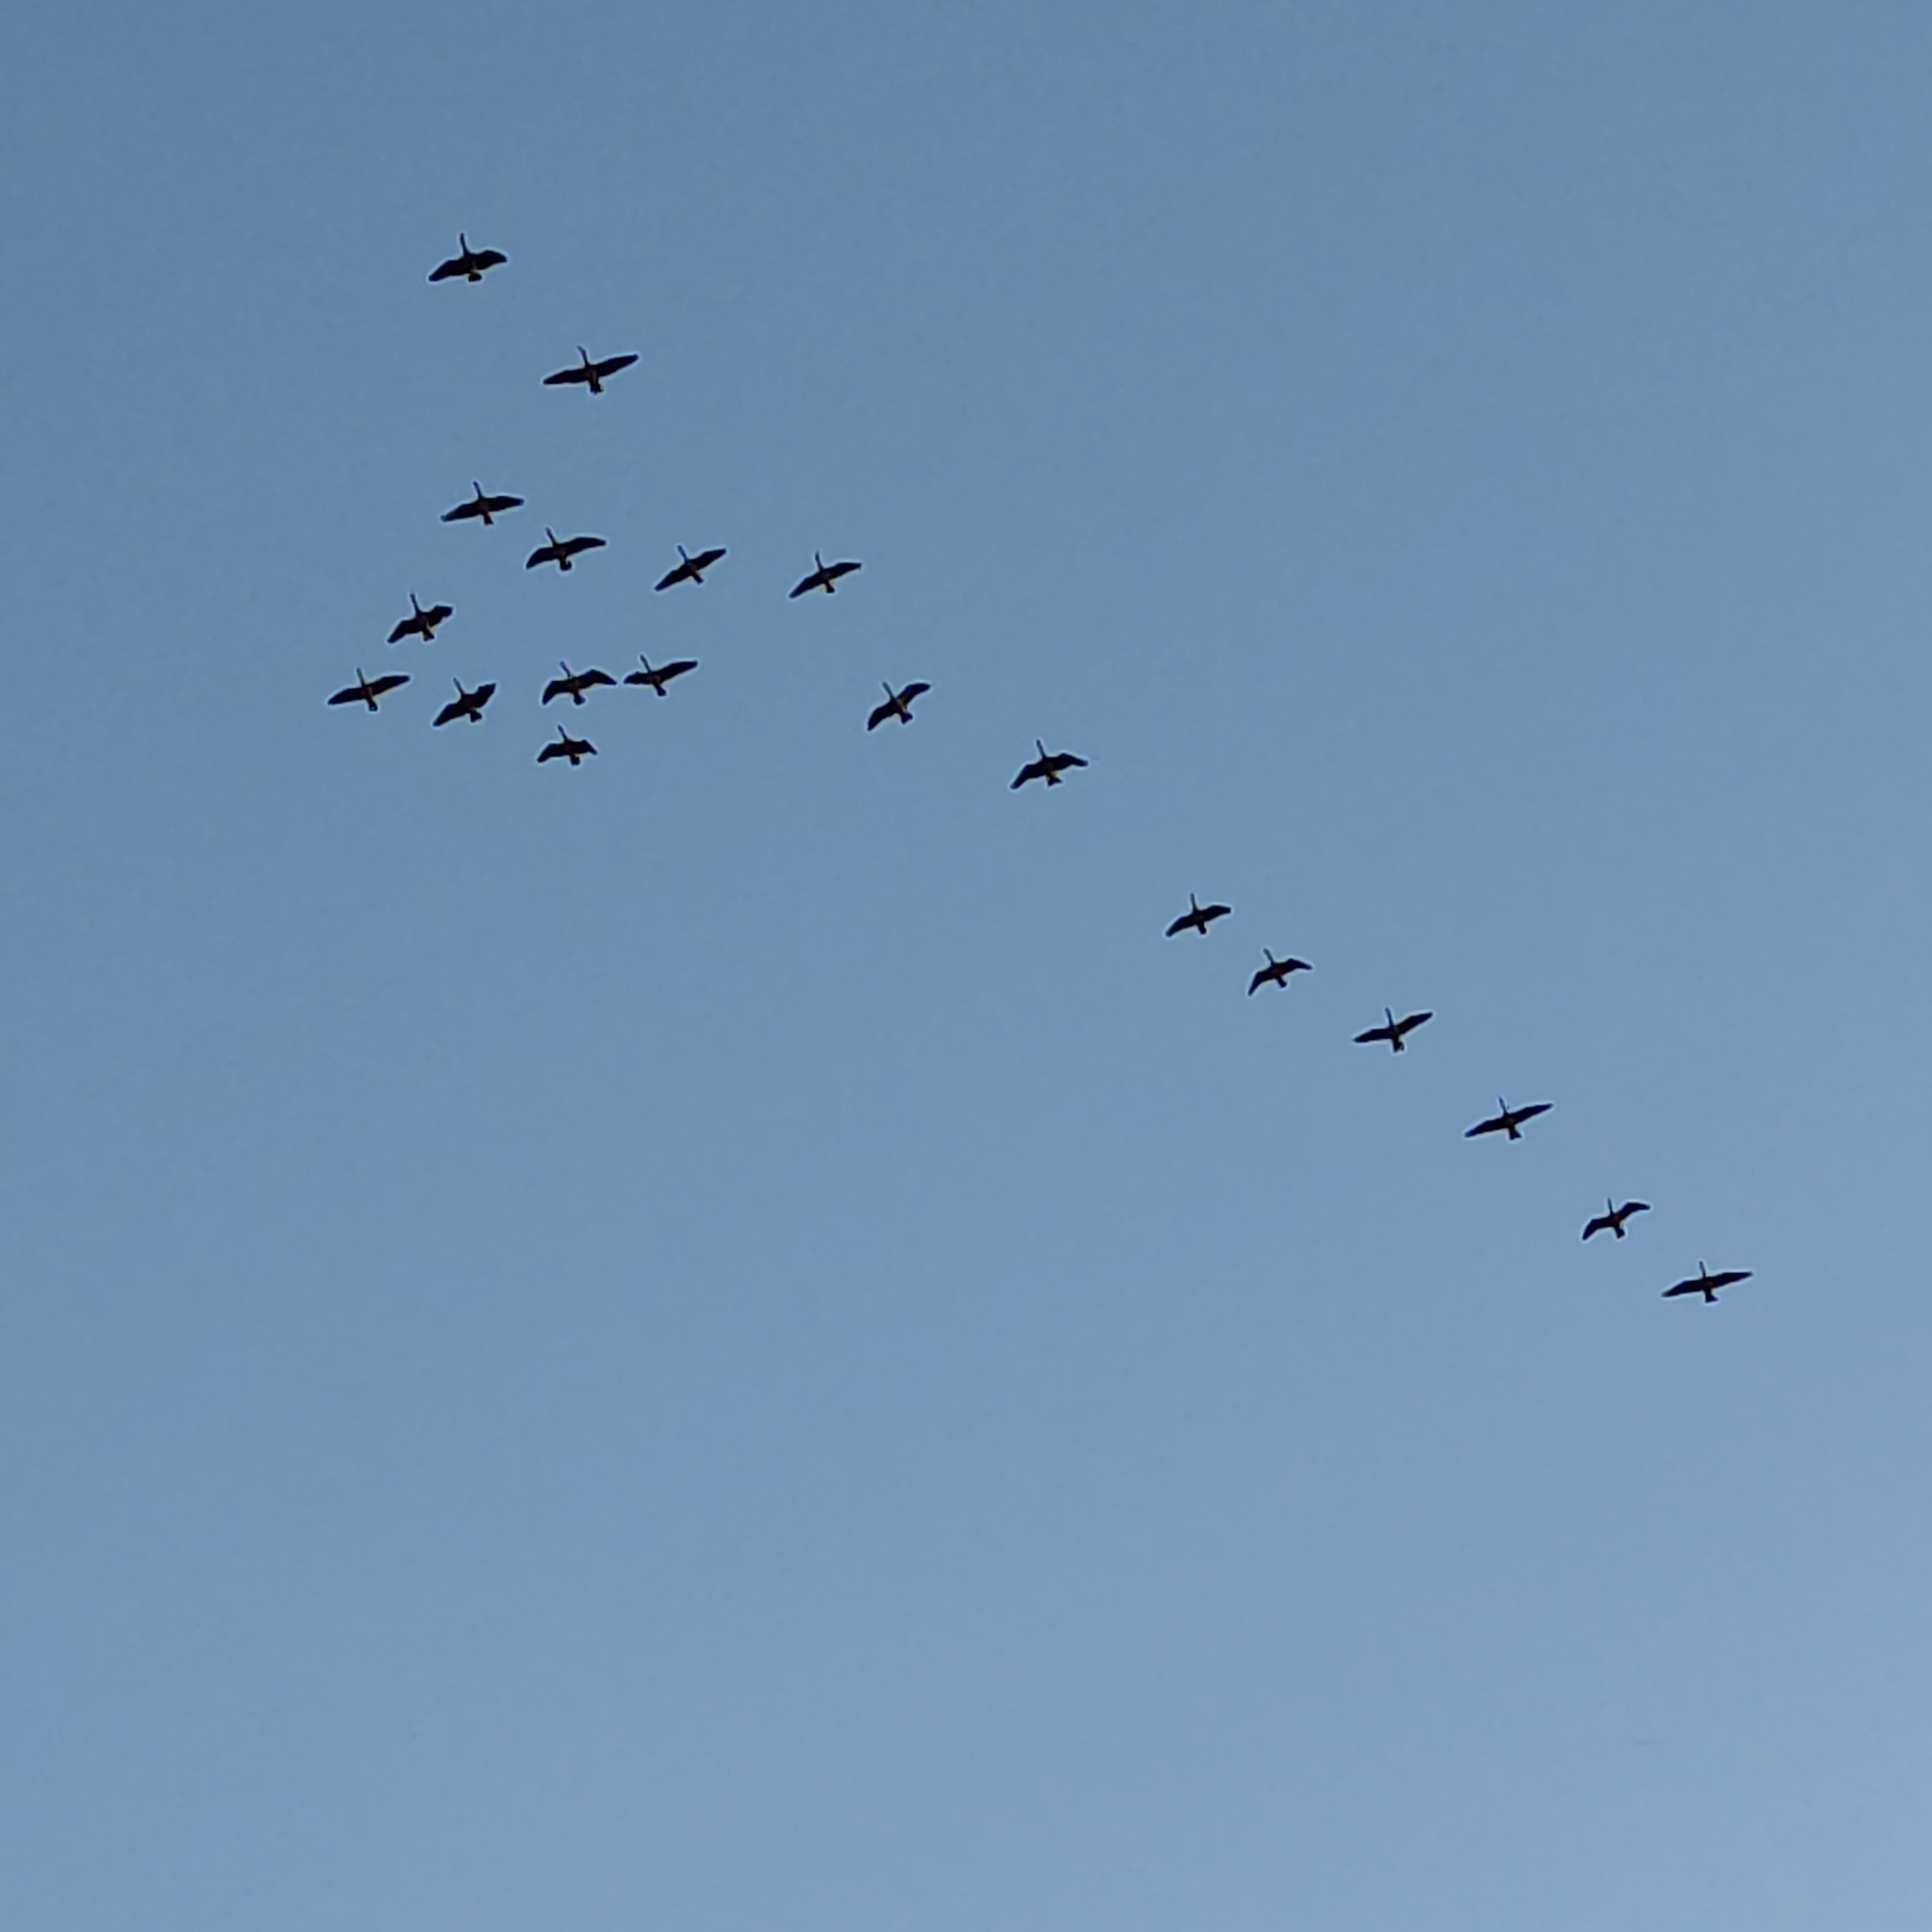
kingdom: Animalia
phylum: Chordata
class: Aves
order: Anseriformes
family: Anatidae
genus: Branta
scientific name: Branta canadensis
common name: Canada goose
